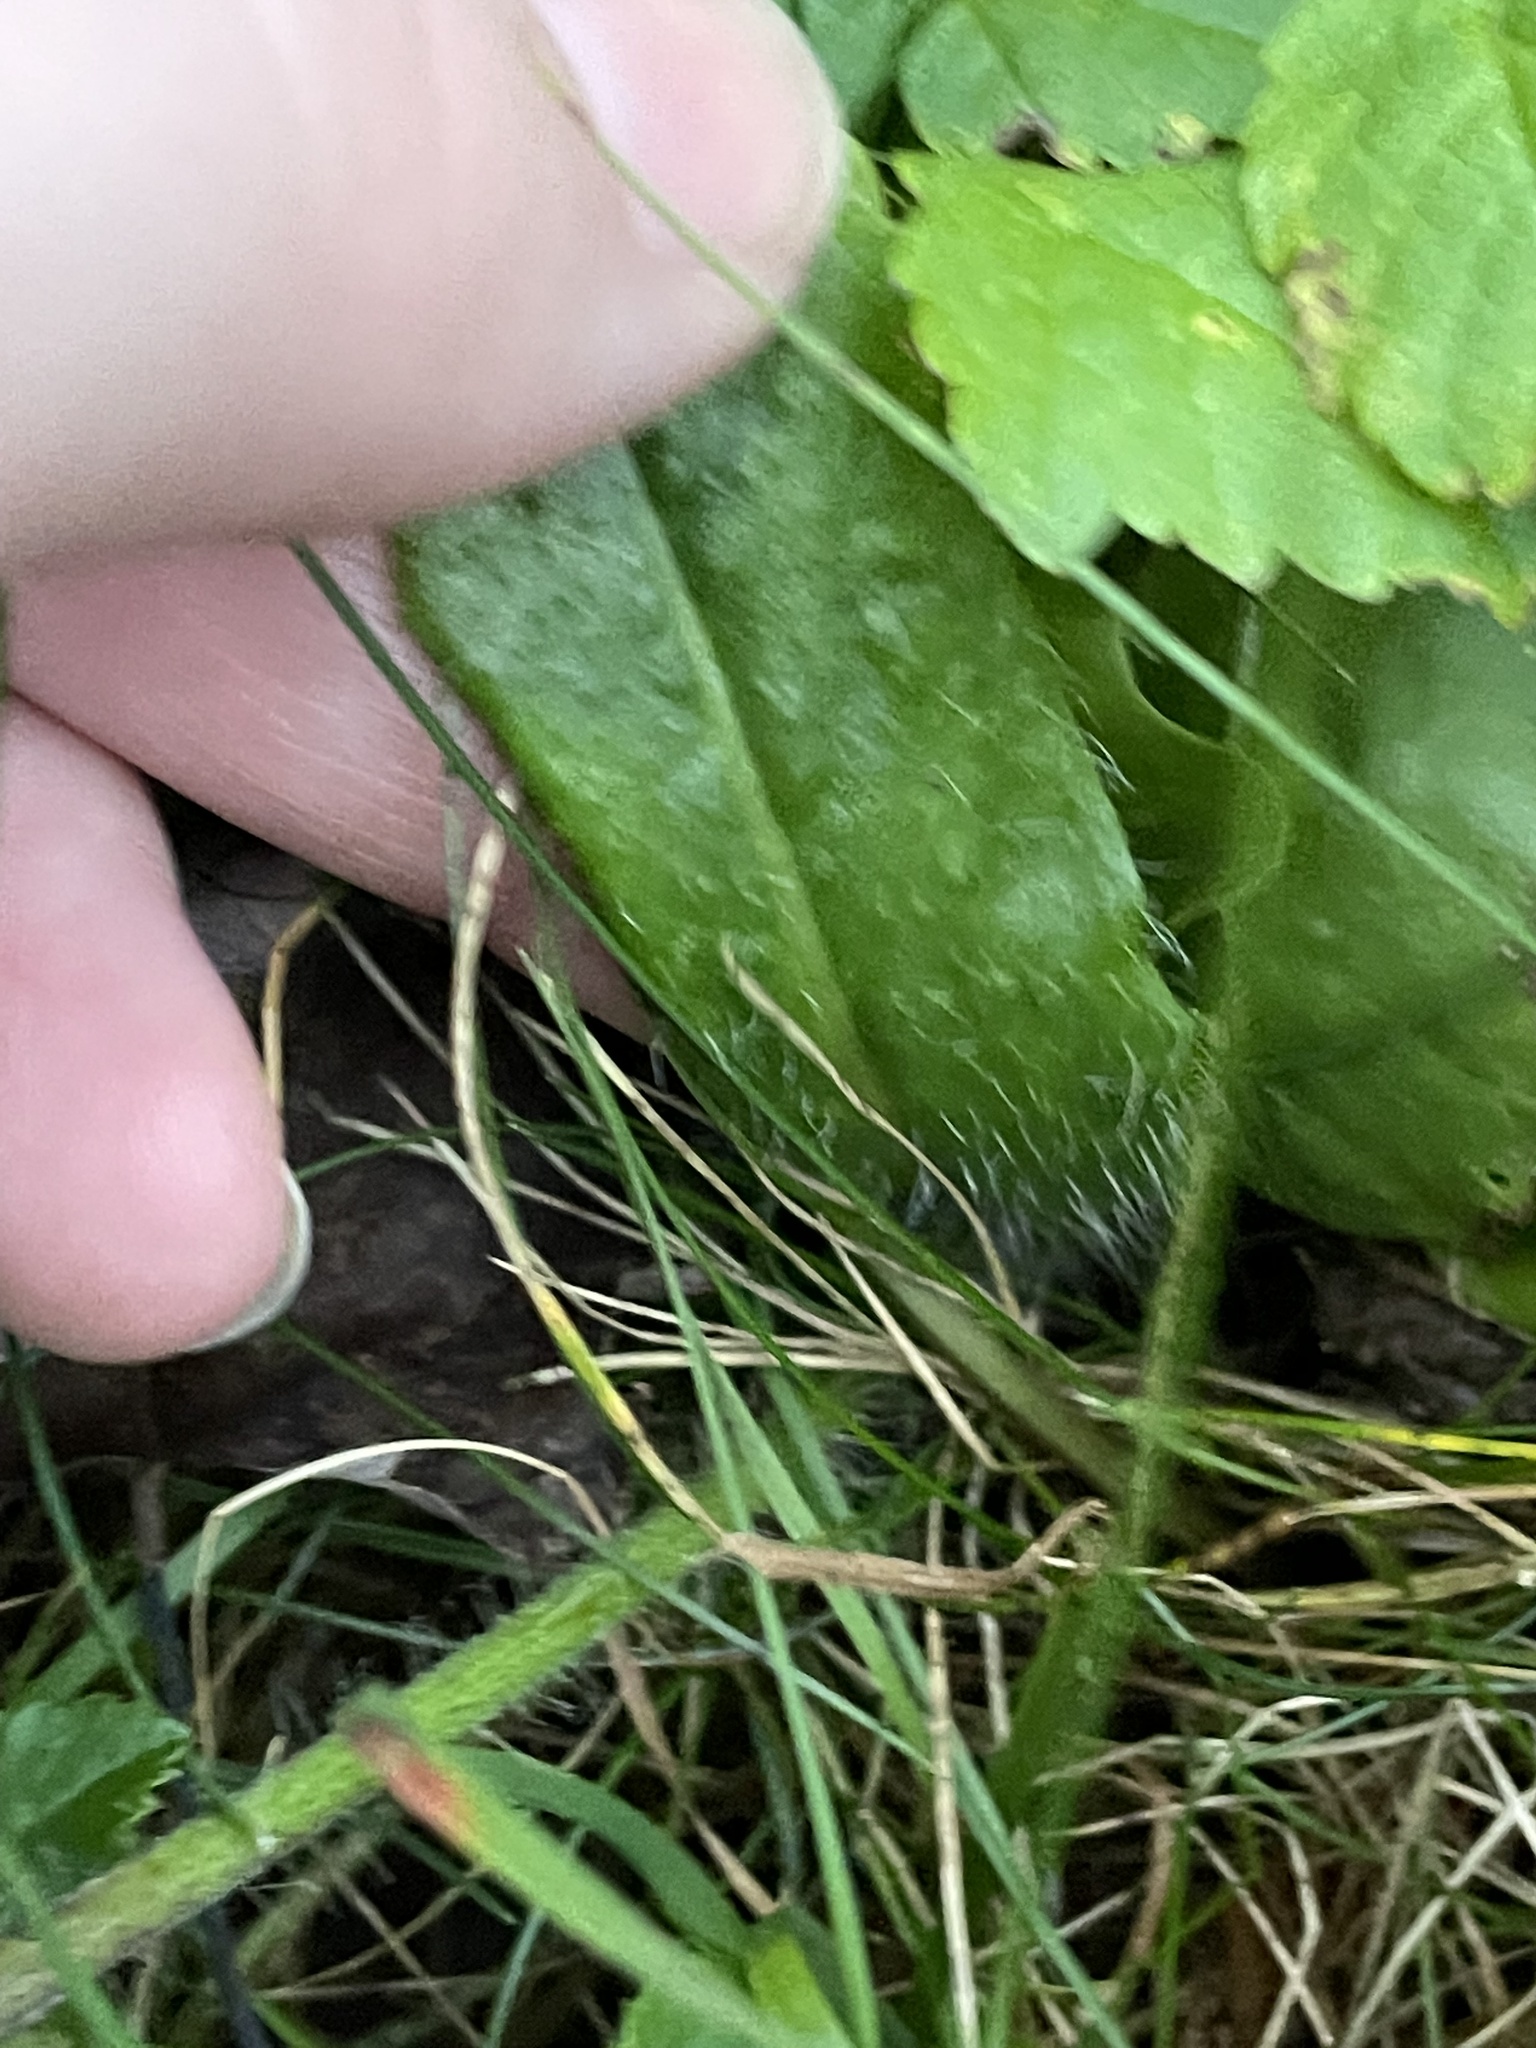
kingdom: Plantae
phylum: Tracheophyta
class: Magnoliopsida
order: Asterales
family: Asteraceae
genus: Pilosella
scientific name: Pilosella aurantiaca
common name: Fox-and-cubs
